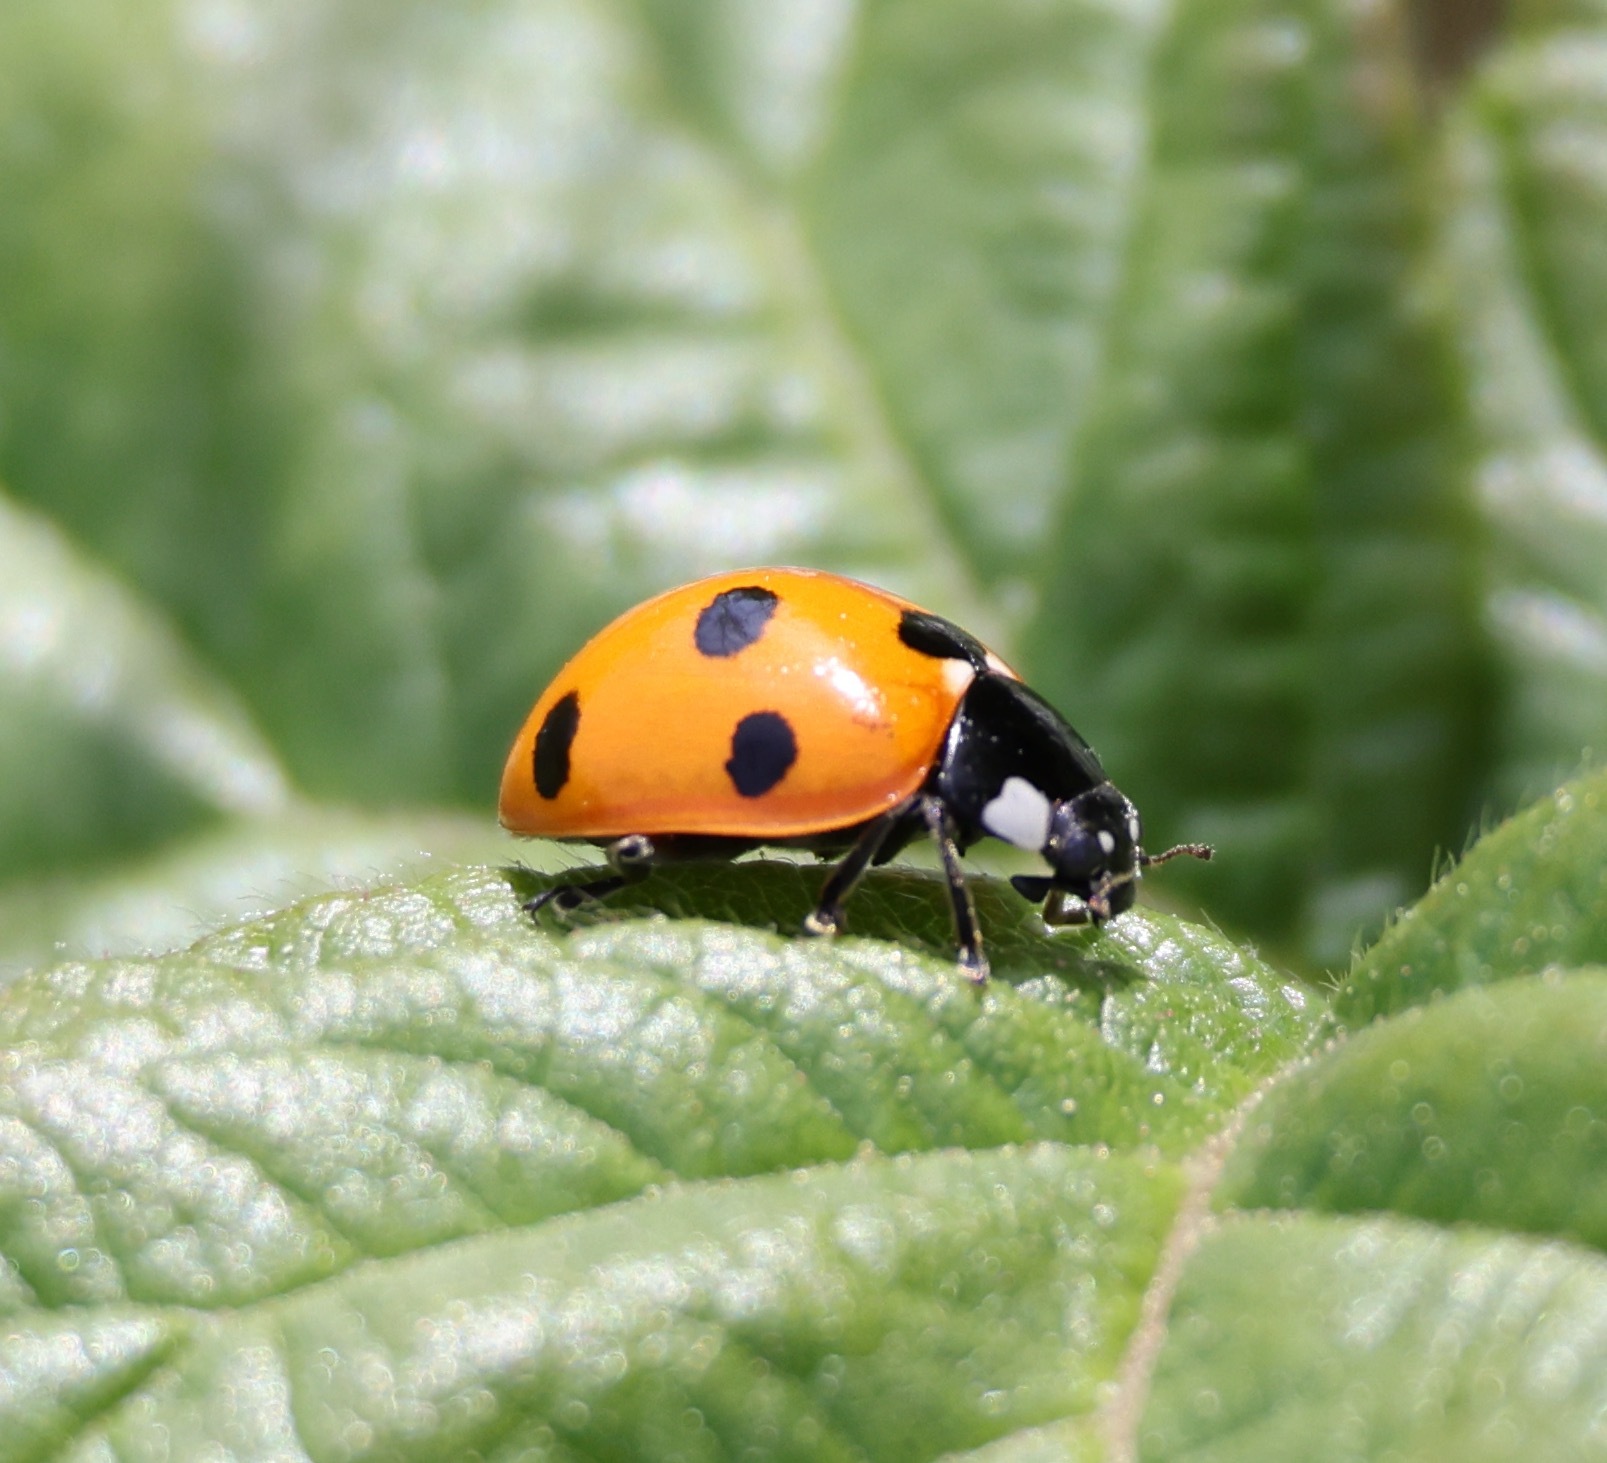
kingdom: Animalia
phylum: Arthropoda
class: Insecta
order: Coleoptera
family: Coccinellidae
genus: Coccinella
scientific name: Coccinella septempunctata
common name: Sevenspotted lady beetle
